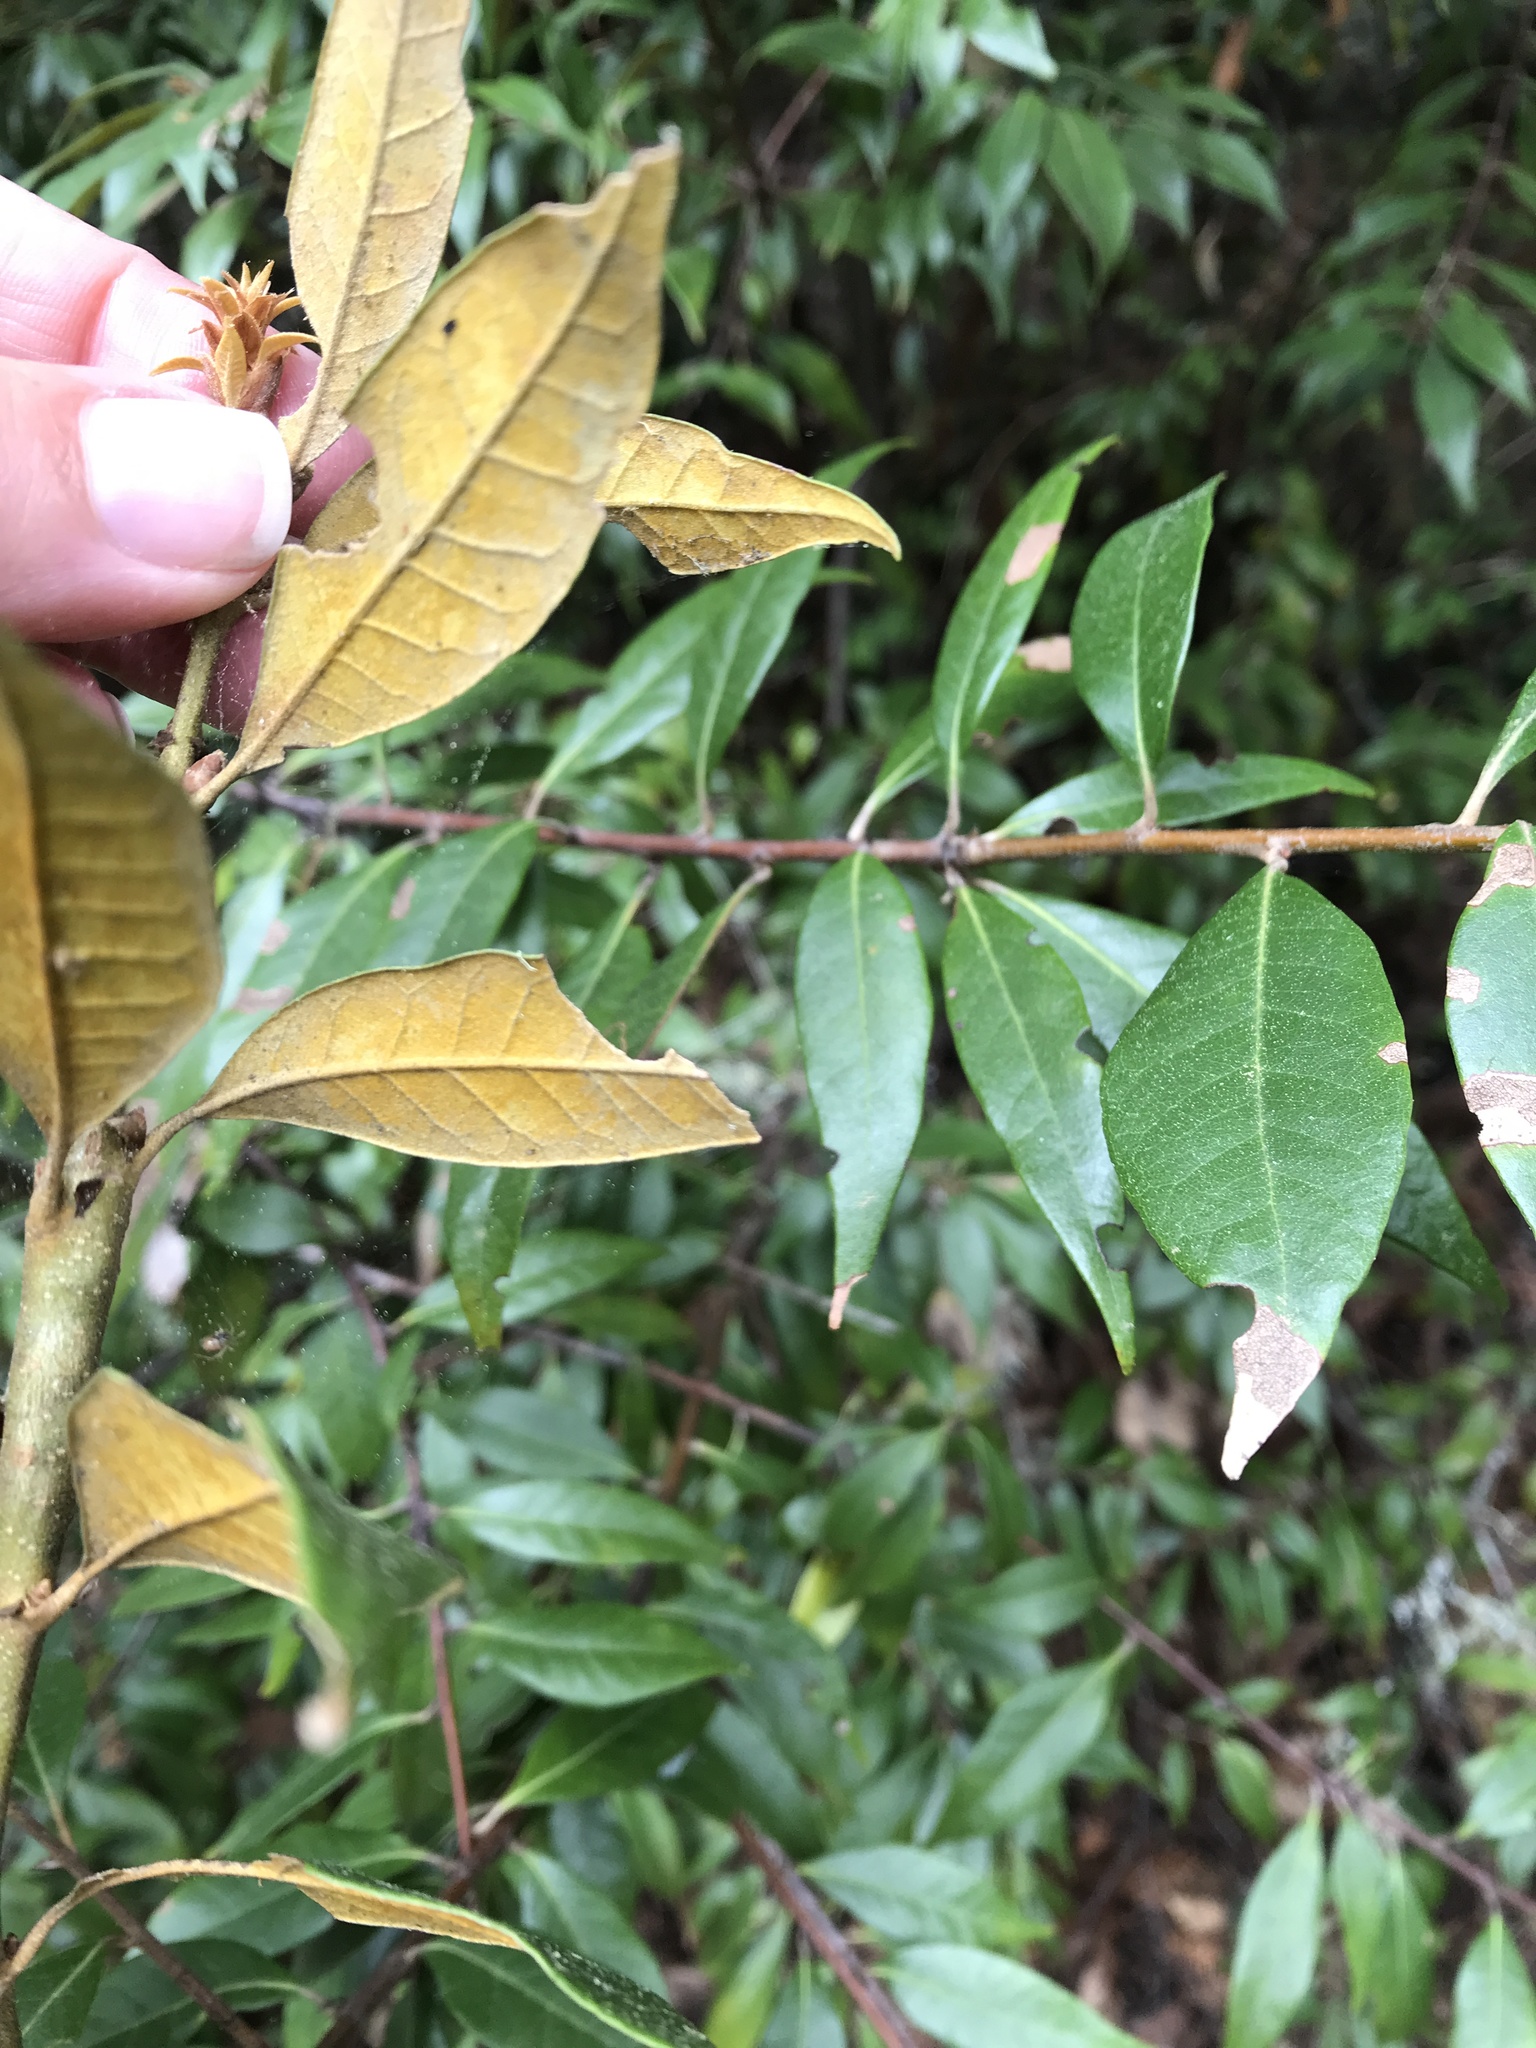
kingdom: Plantae
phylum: Tracheophyta
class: Magnoliopsida
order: Fagales
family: Fagaceae
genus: Chrysolepis
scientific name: Chrysolepis chrysophylla
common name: Giant chinquapin
